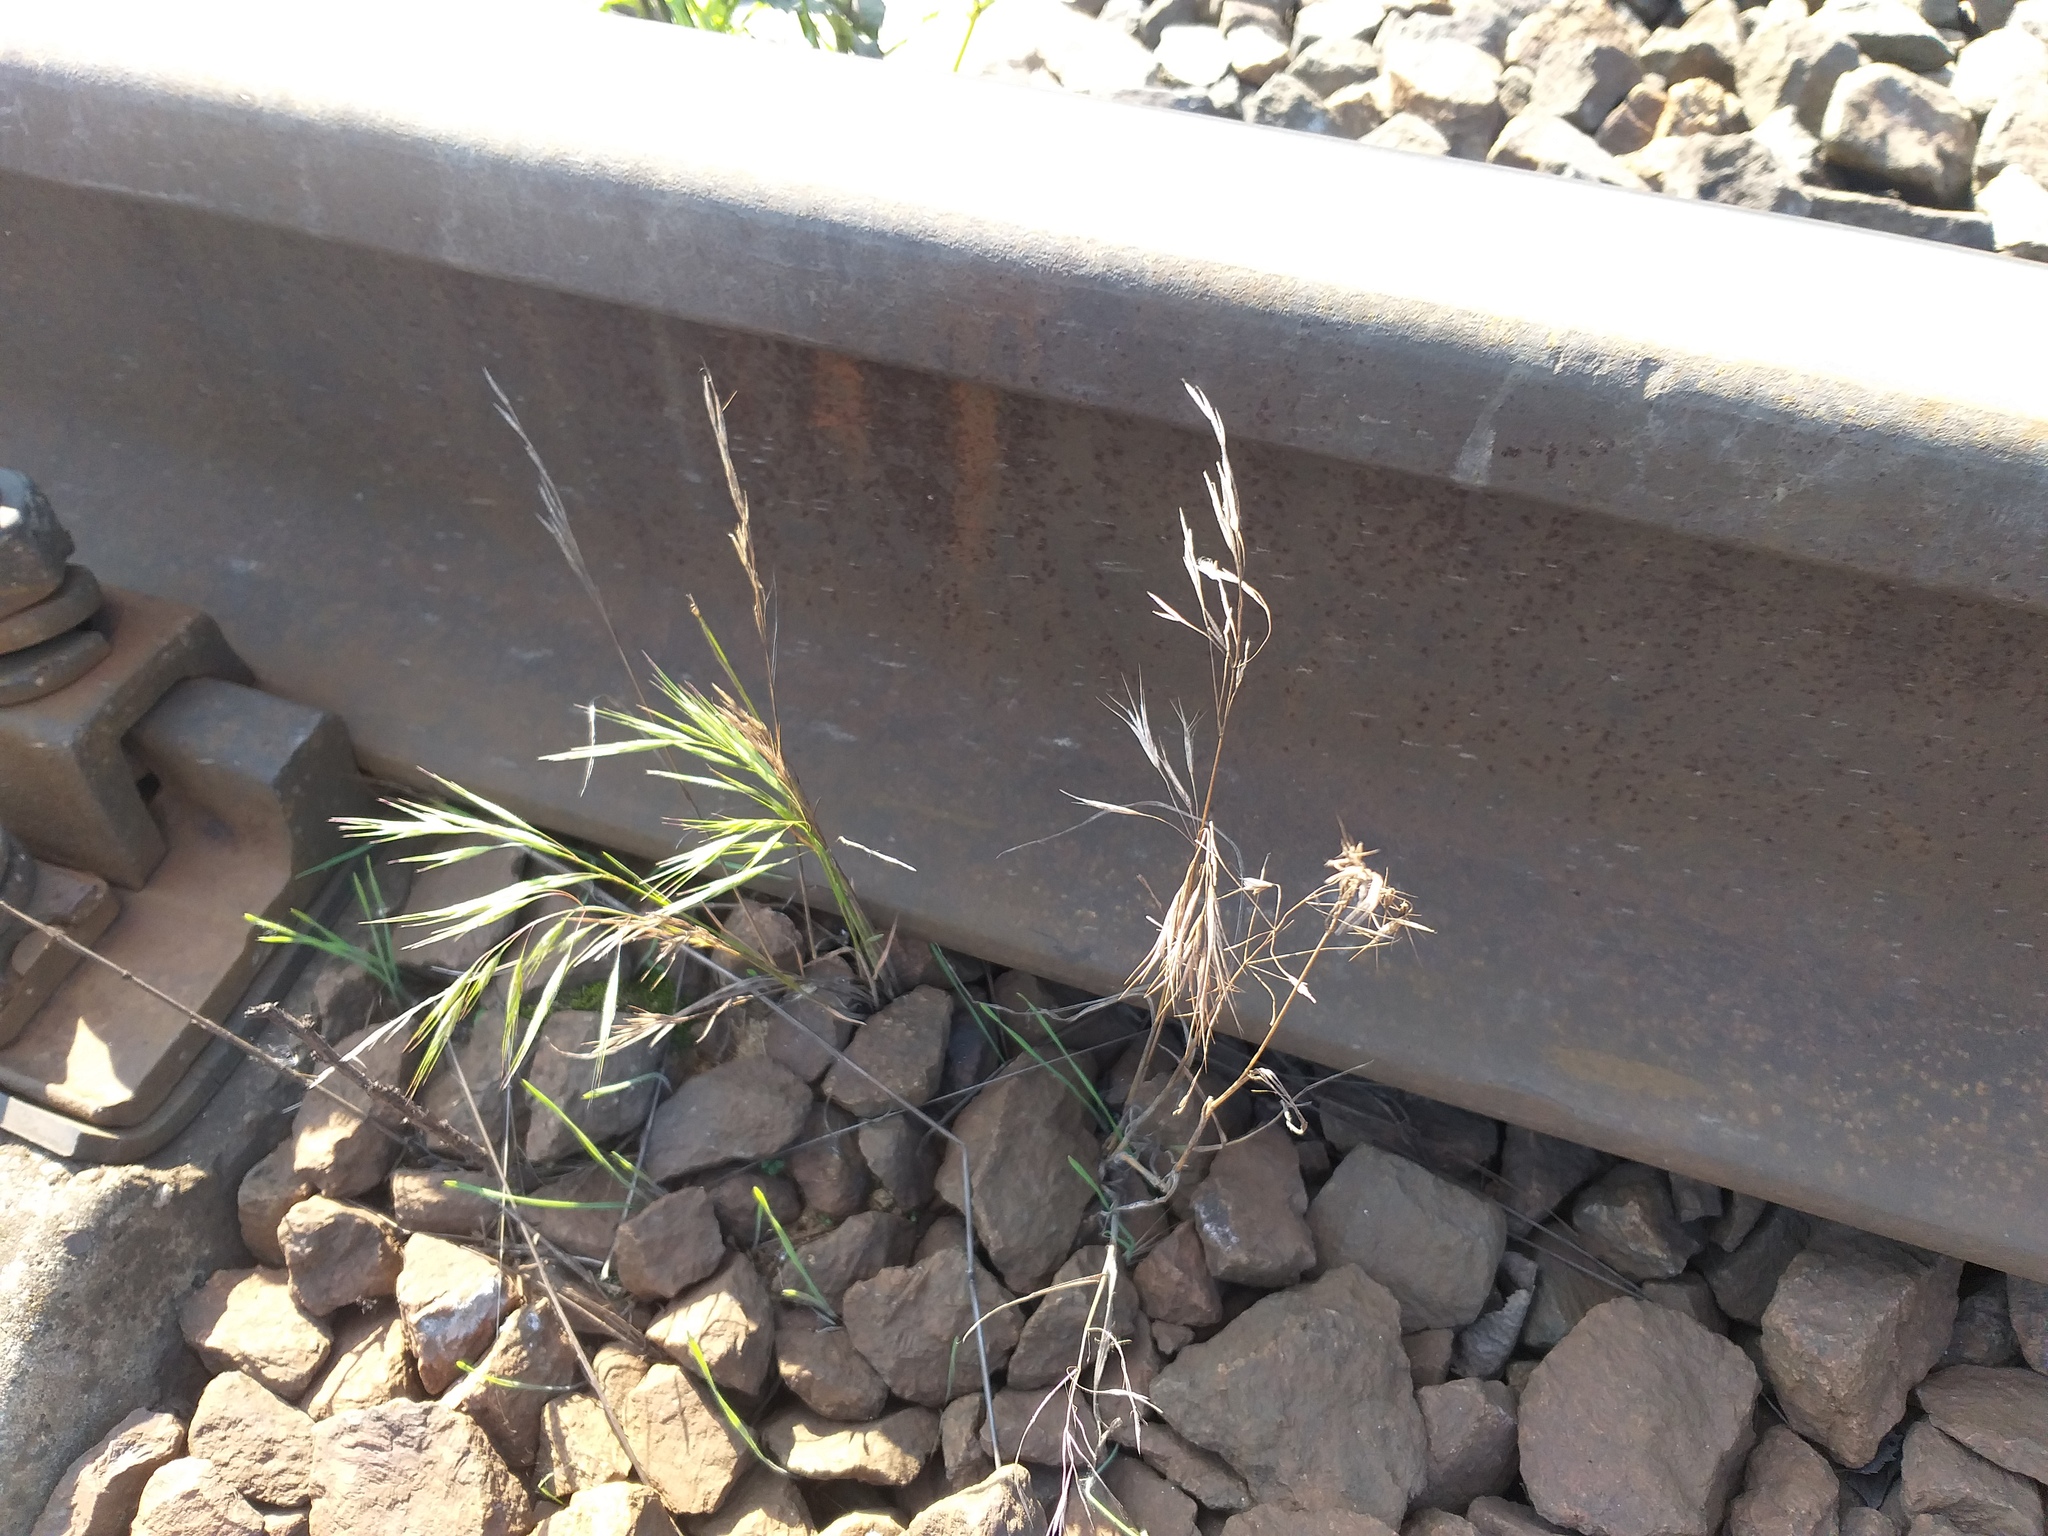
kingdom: Plantae
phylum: Tracheophyta
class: Liliopsida
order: Poales
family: Poaceae
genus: Bromus
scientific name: Bromus tectorum
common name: Cheatgrass
